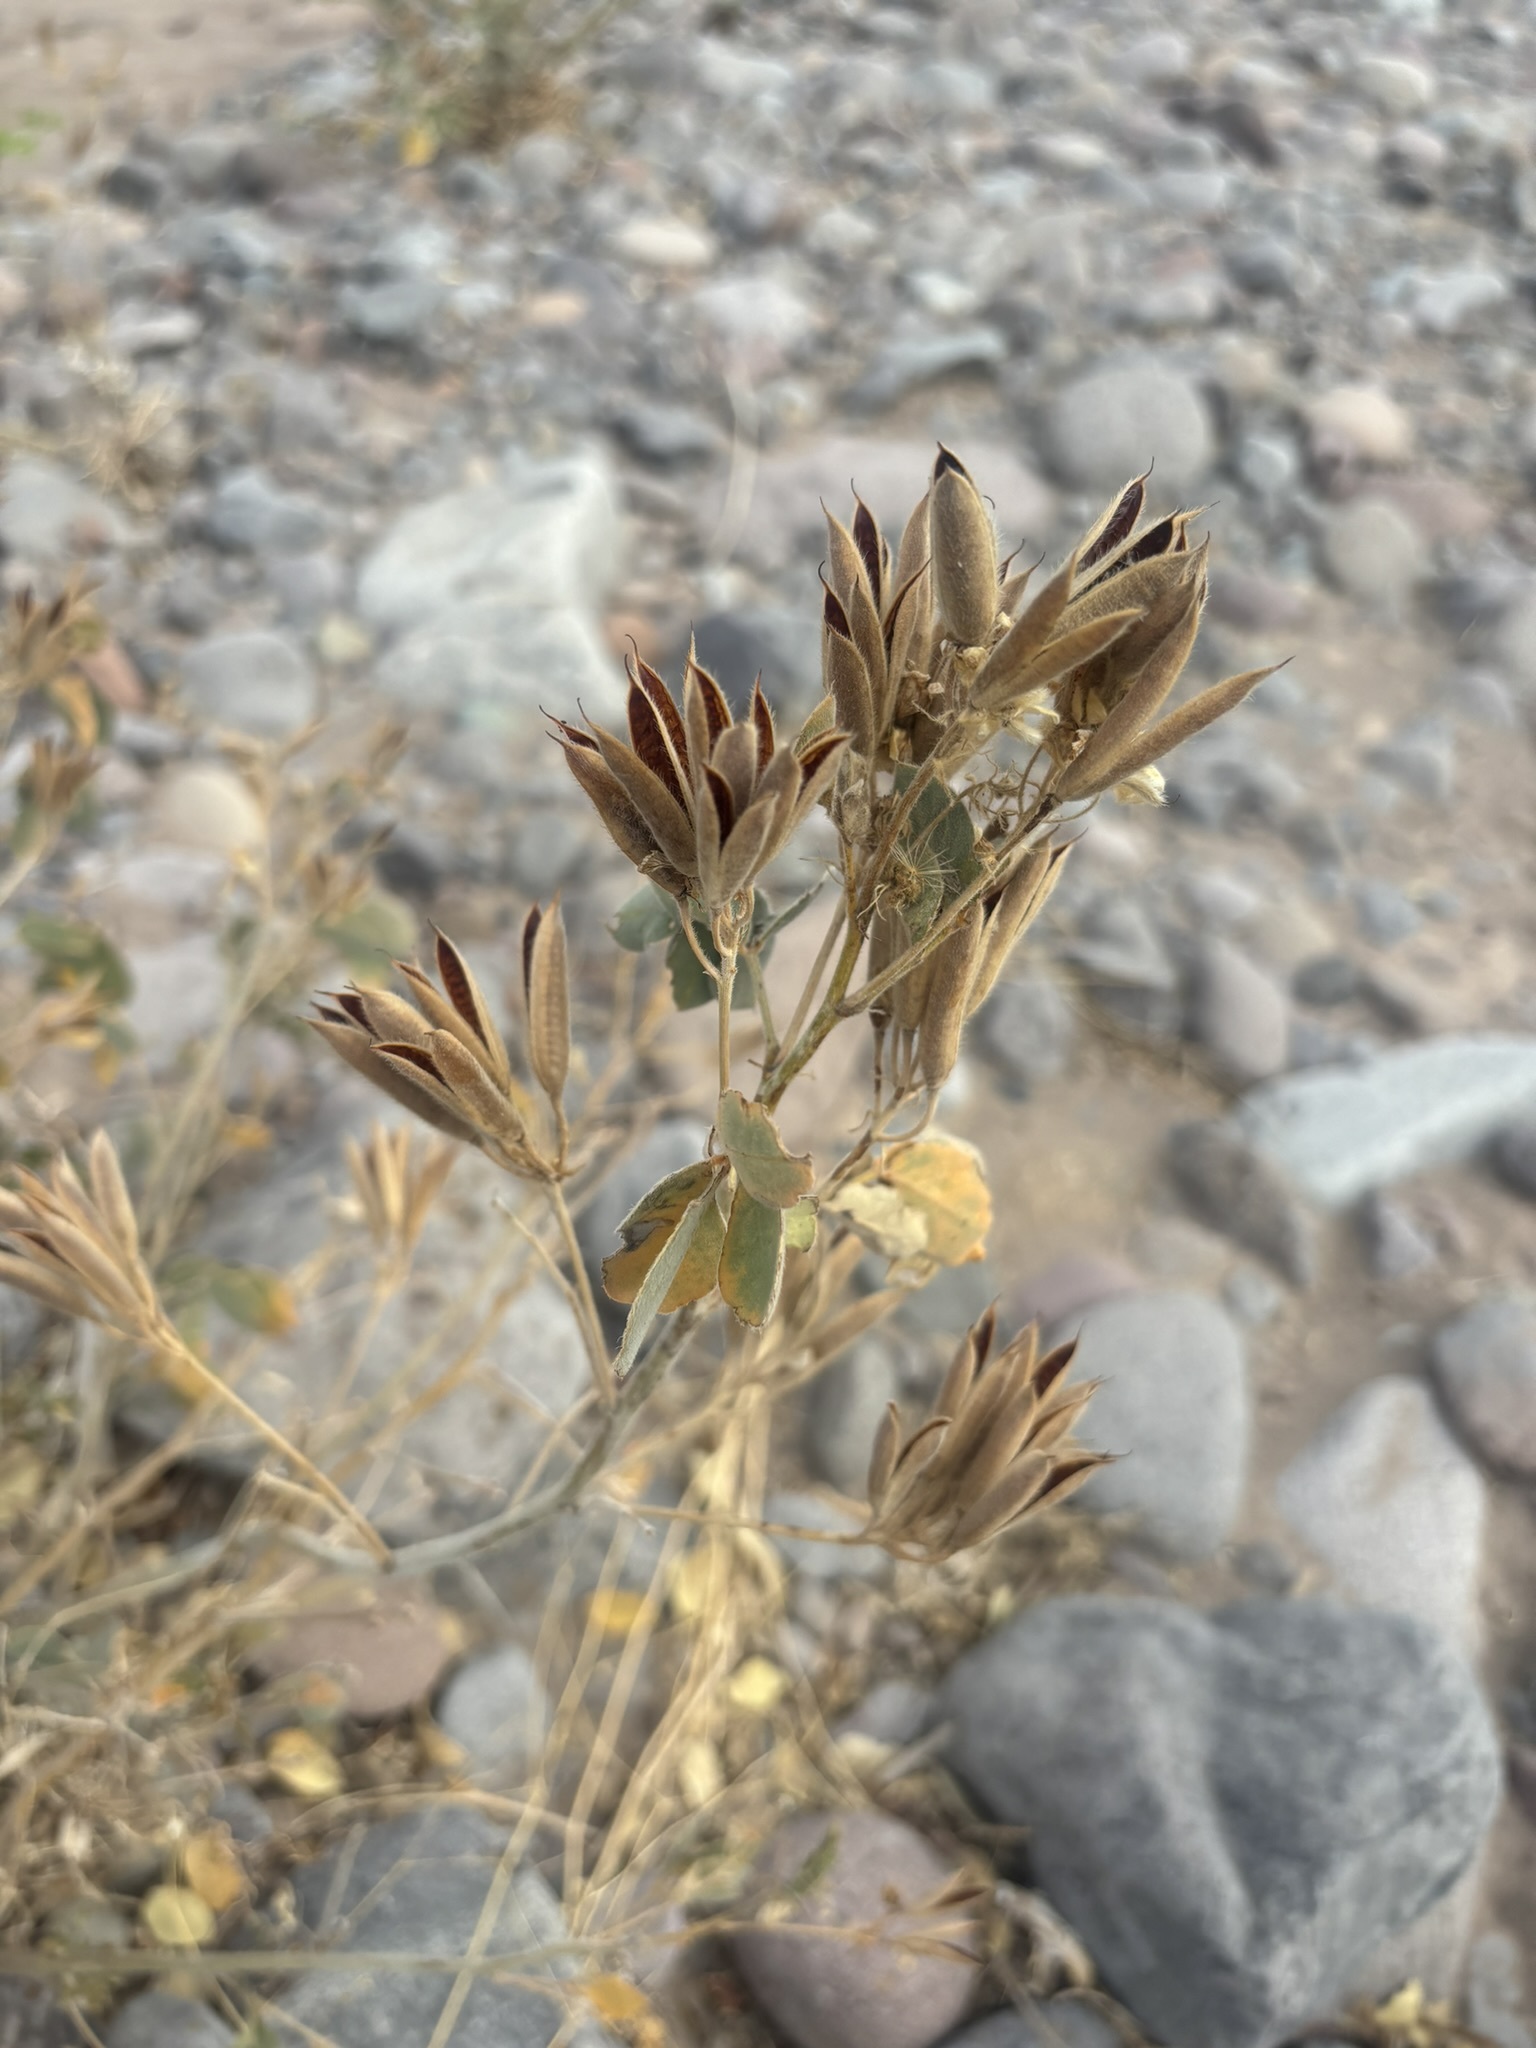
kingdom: Plantae
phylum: Tracheophyta
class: Magnoliopsida
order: Fabales
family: Fabaceae
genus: Senna
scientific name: Senna confinis
